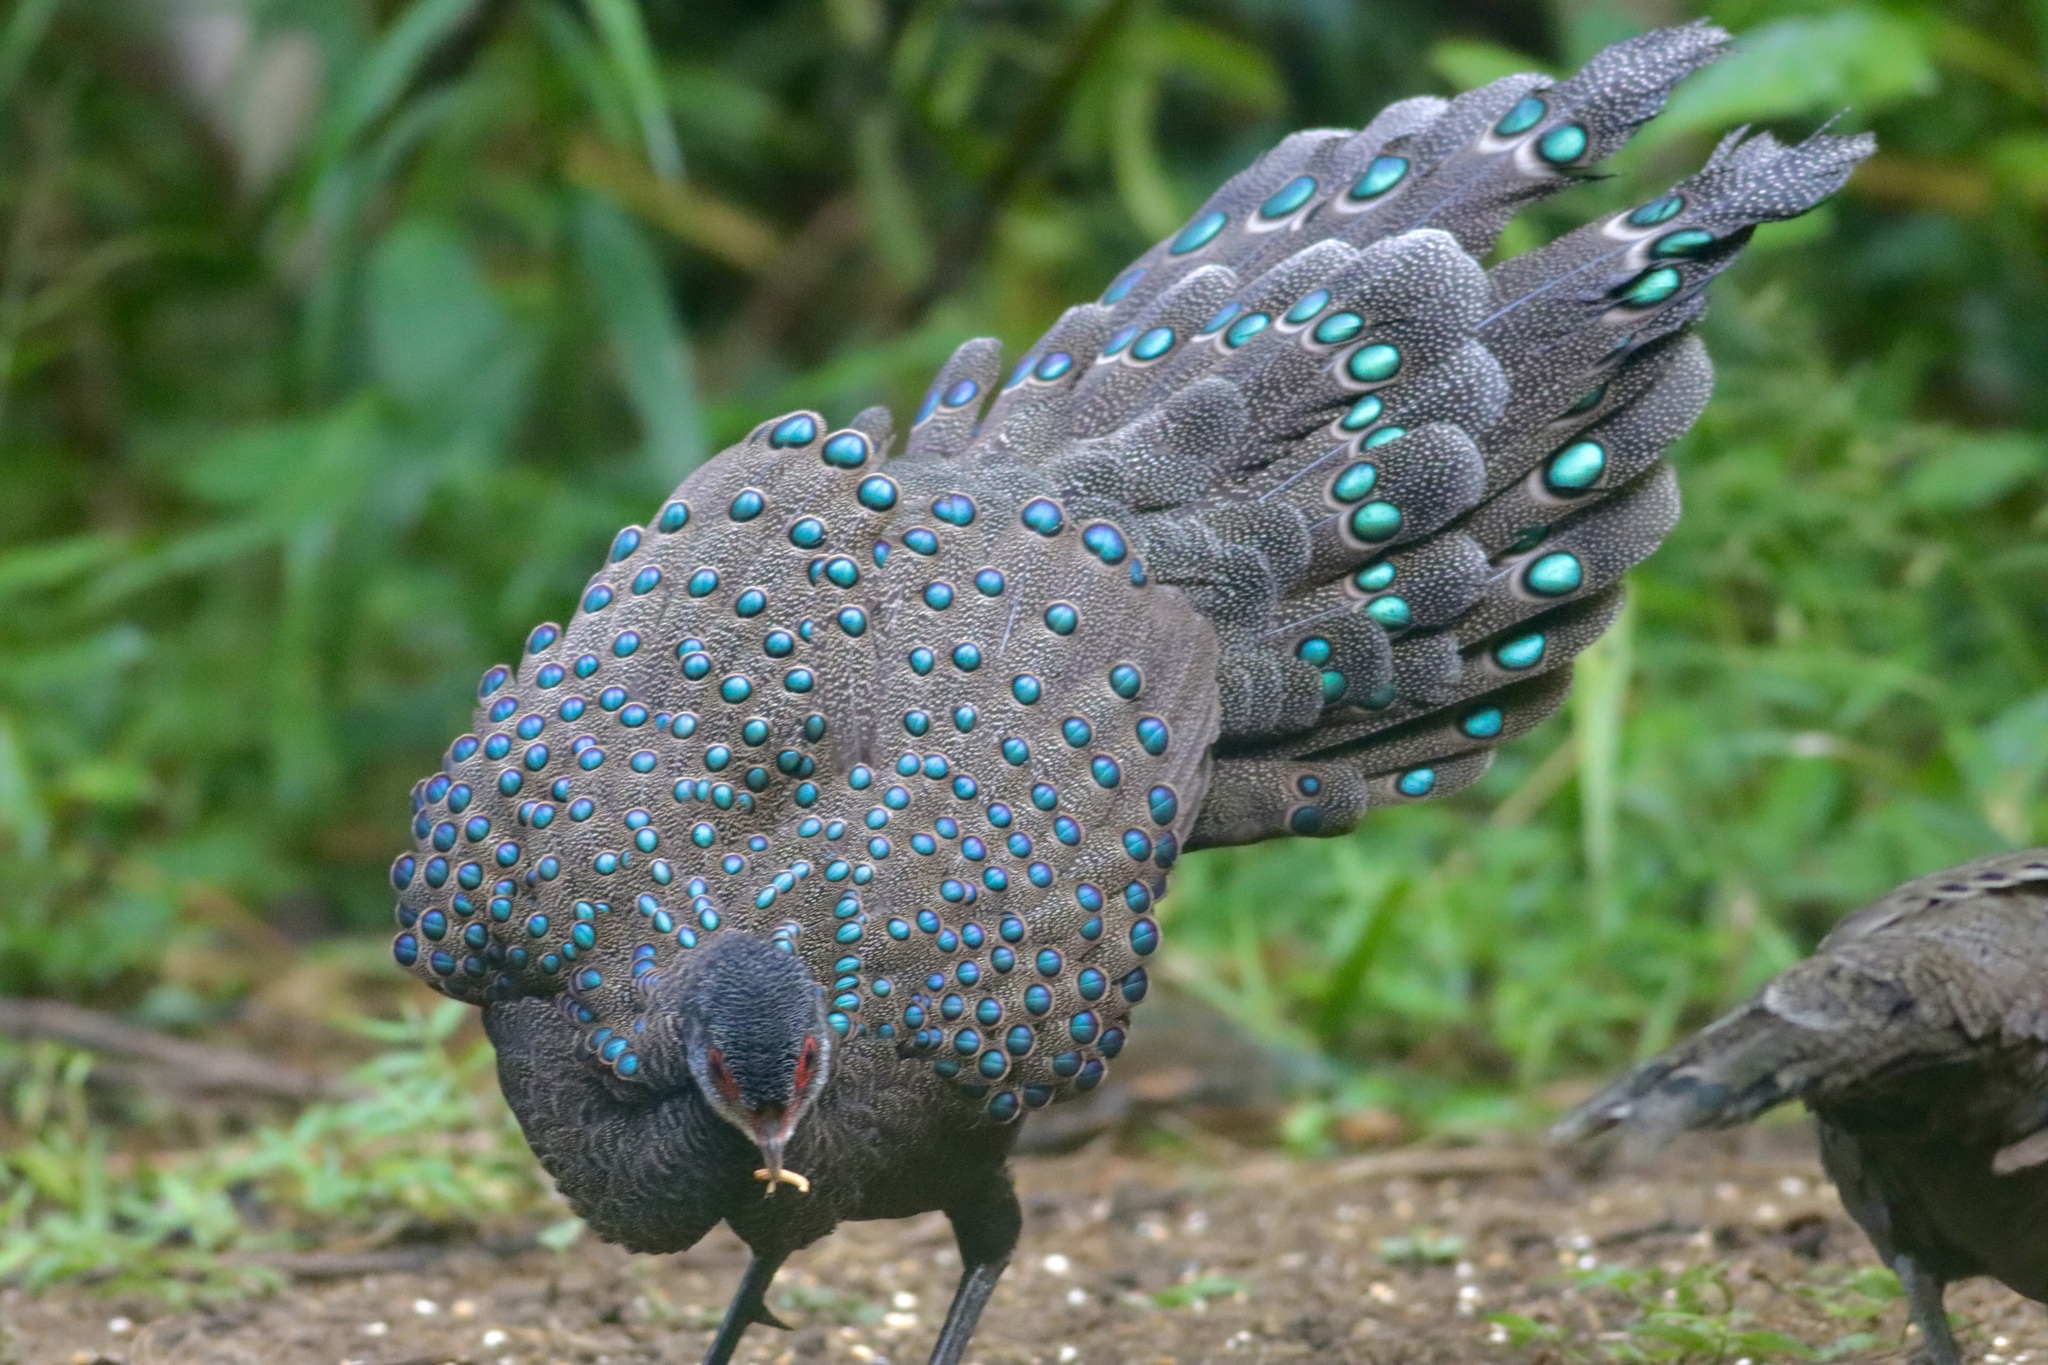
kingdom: Animalia
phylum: Chordata
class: Aves
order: Galliformes
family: Phasianidae
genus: Polyplectron
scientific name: Polyplectron germaini
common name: Germain's peacock-pheasant
